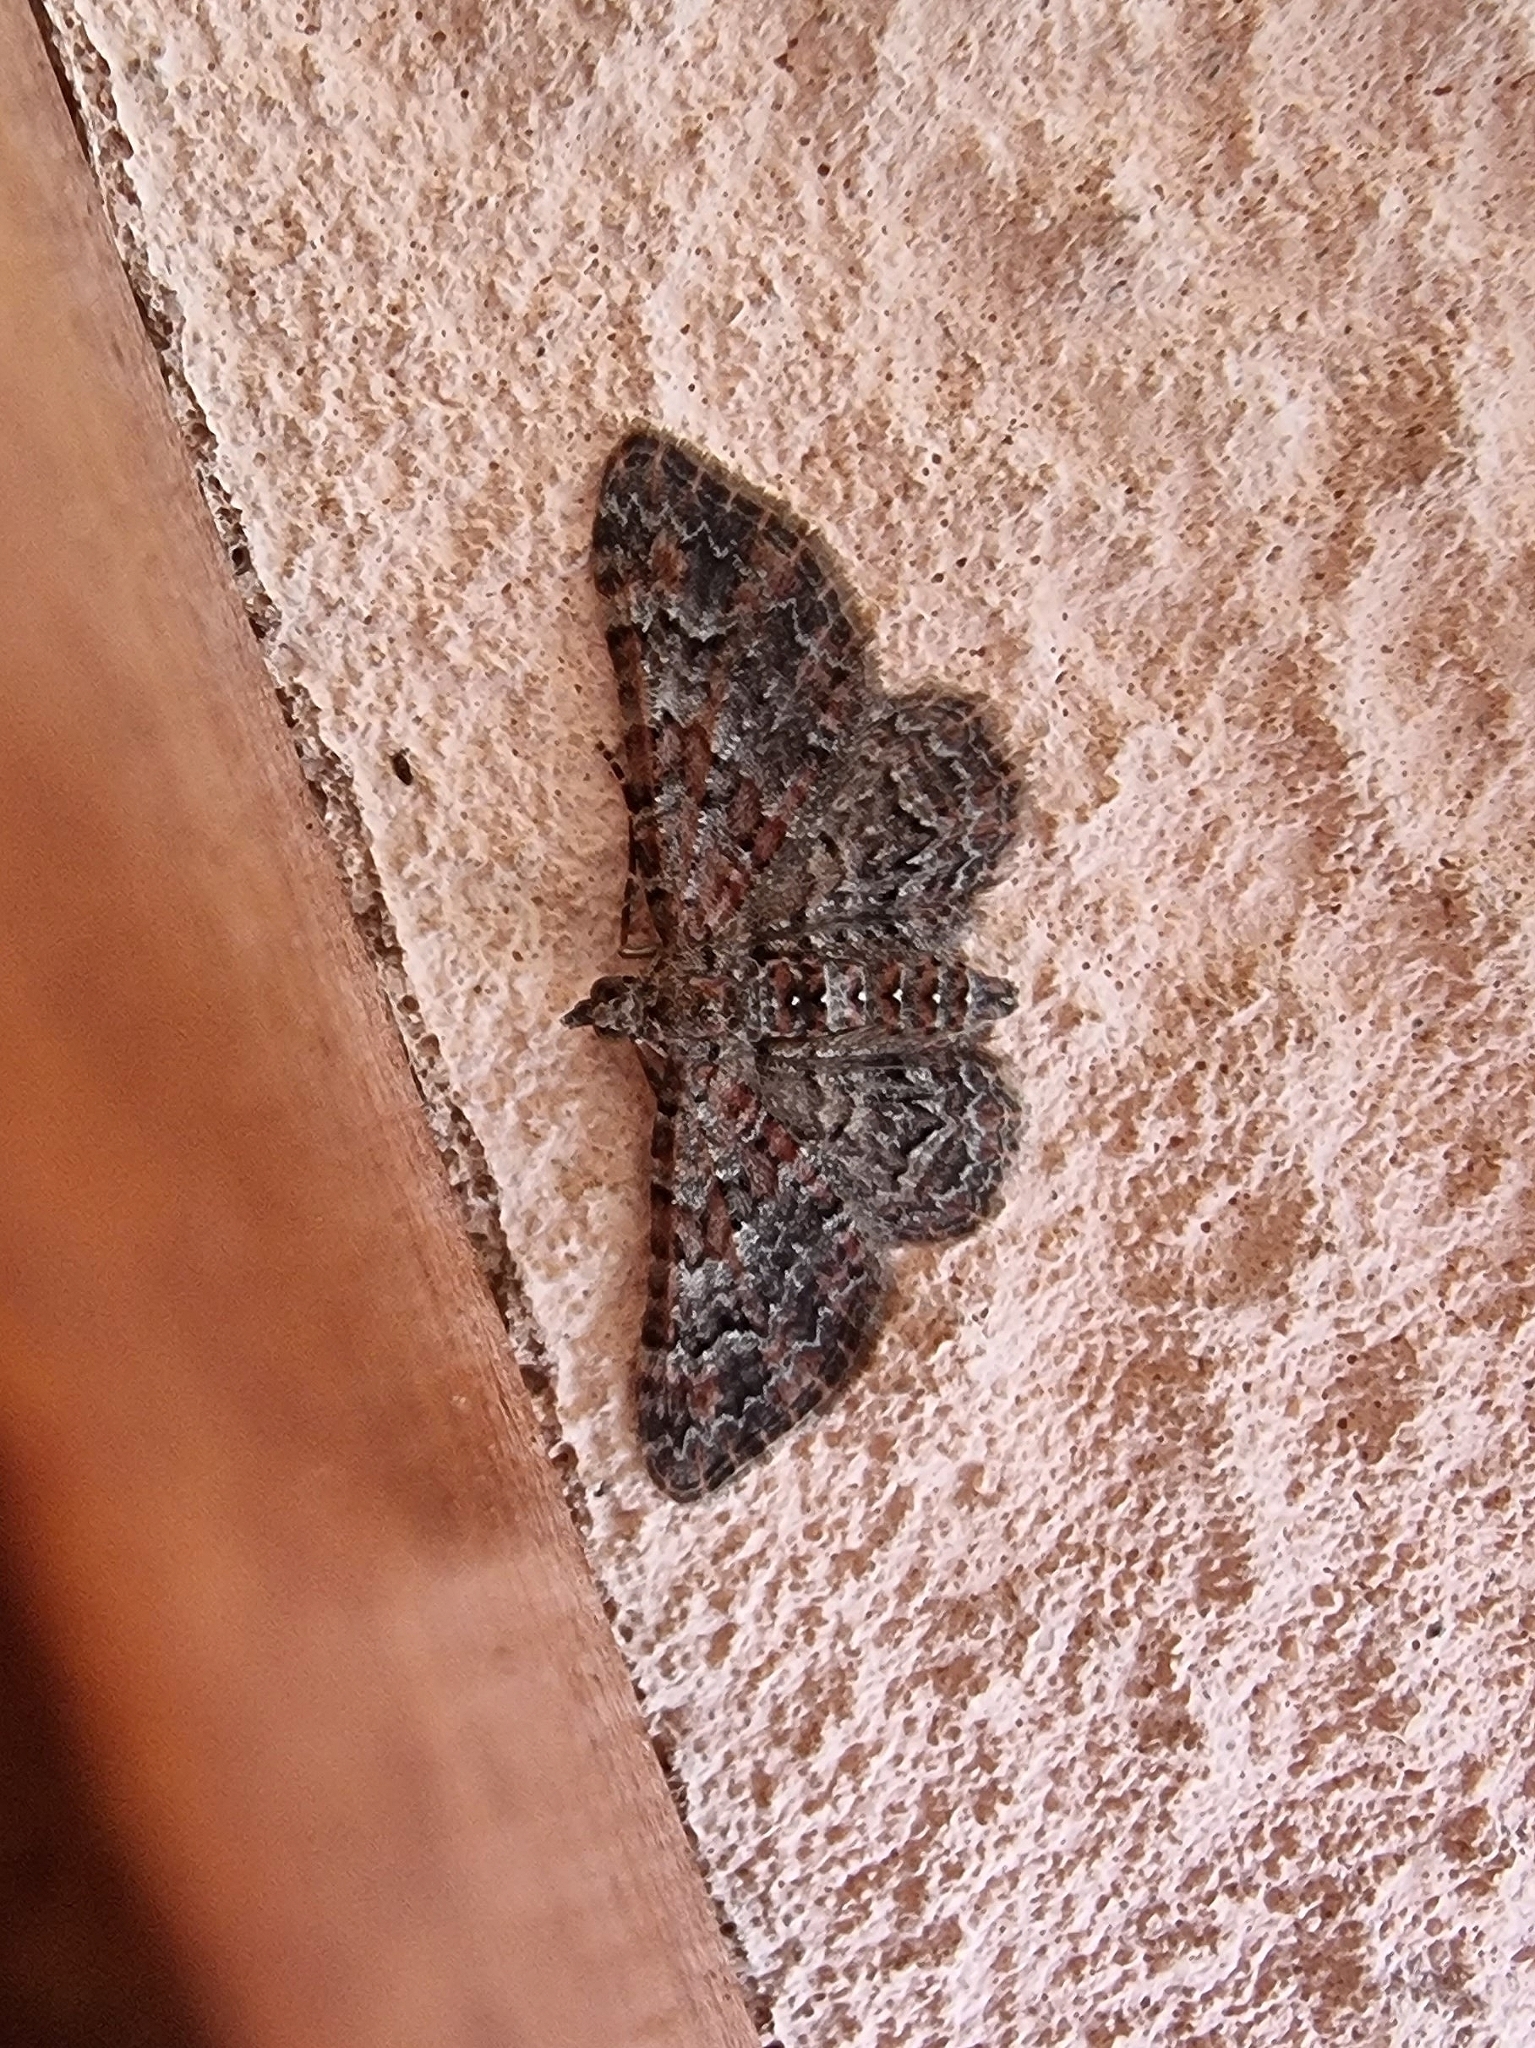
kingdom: Animalia
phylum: Arthropoda
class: Insecta
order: Lepidoptera
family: Geometridae
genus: Gymnoscelis
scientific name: Gymnoscelis rufifasciata
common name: Double-striped pug
